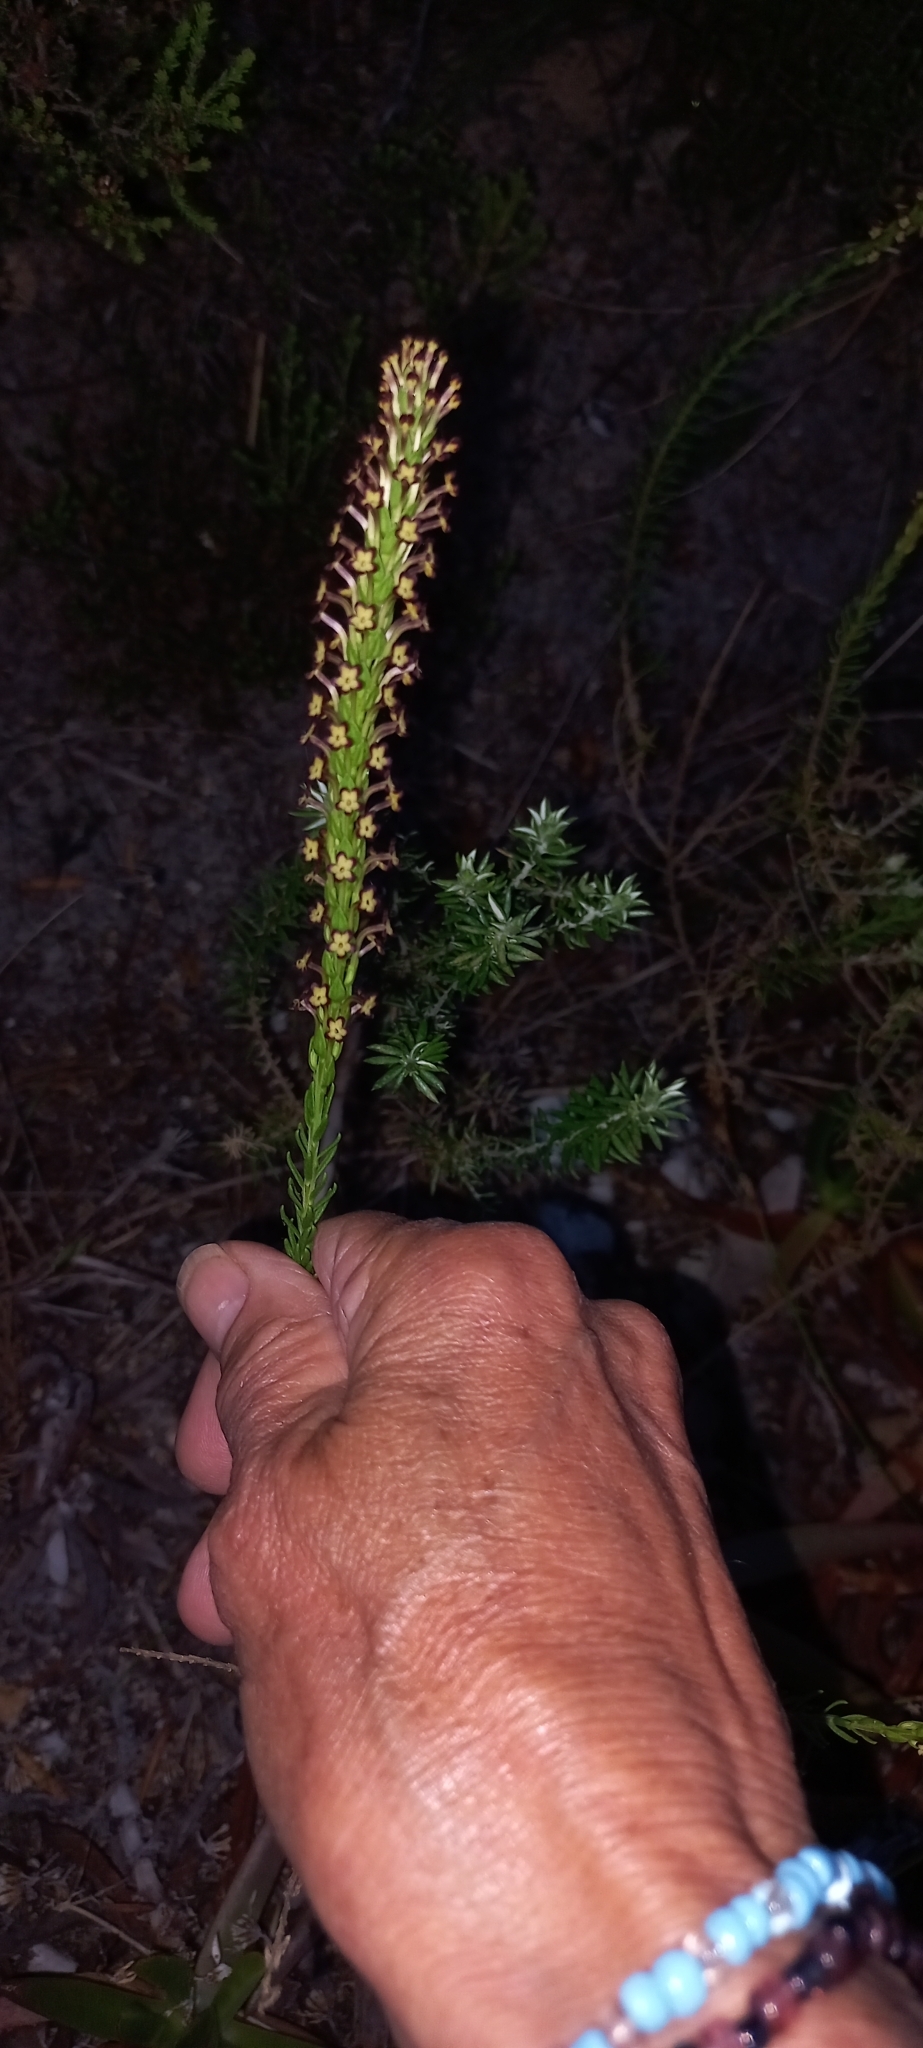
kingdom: Plantae
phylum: Tracheophyta
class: Magnoliopsida
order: Lamiales
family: Scrophulariaceae
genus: Microdon
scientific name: Microdon dubius
